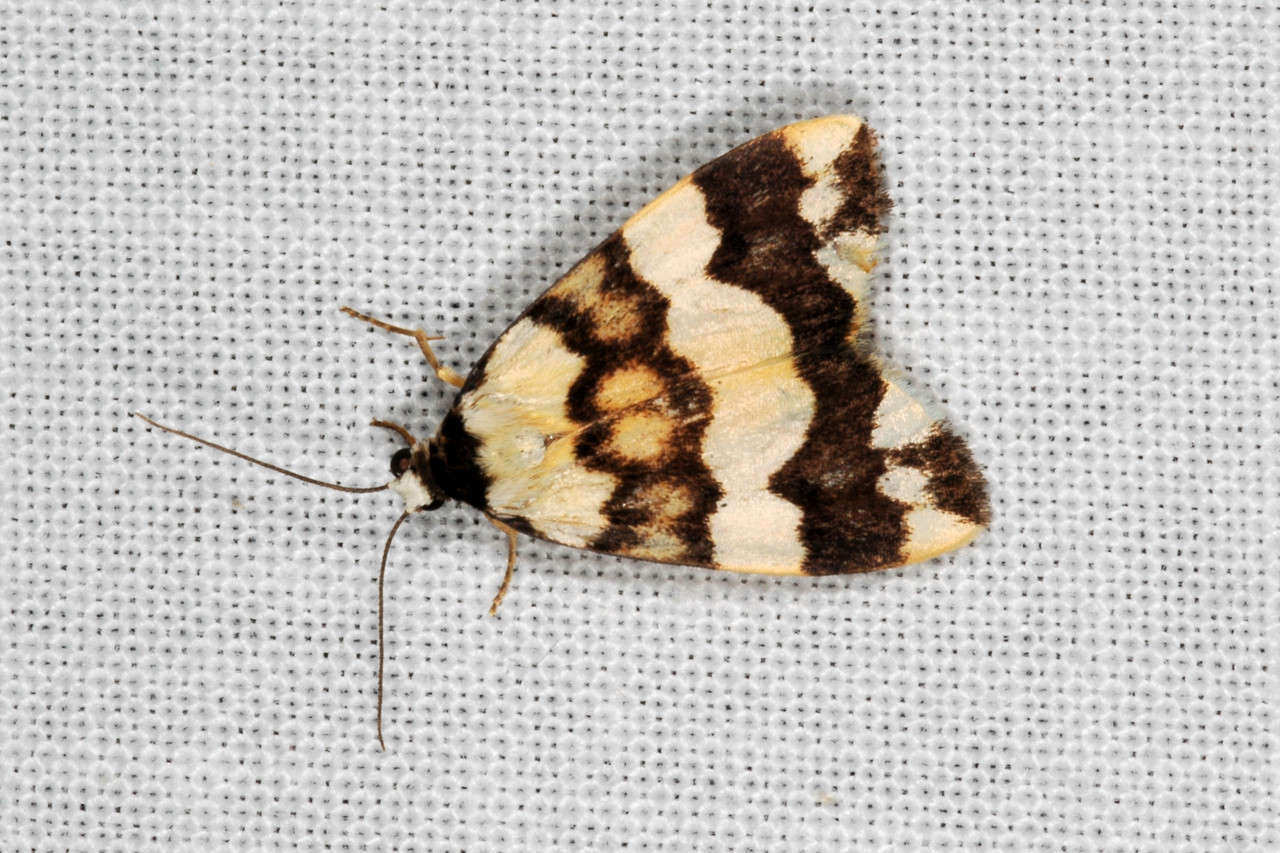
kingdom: Animalia
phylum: Arthropoda
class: Insecta
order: Lepidoptera
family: Erebidae
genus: Termessa
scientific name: Termessa gratiosa
